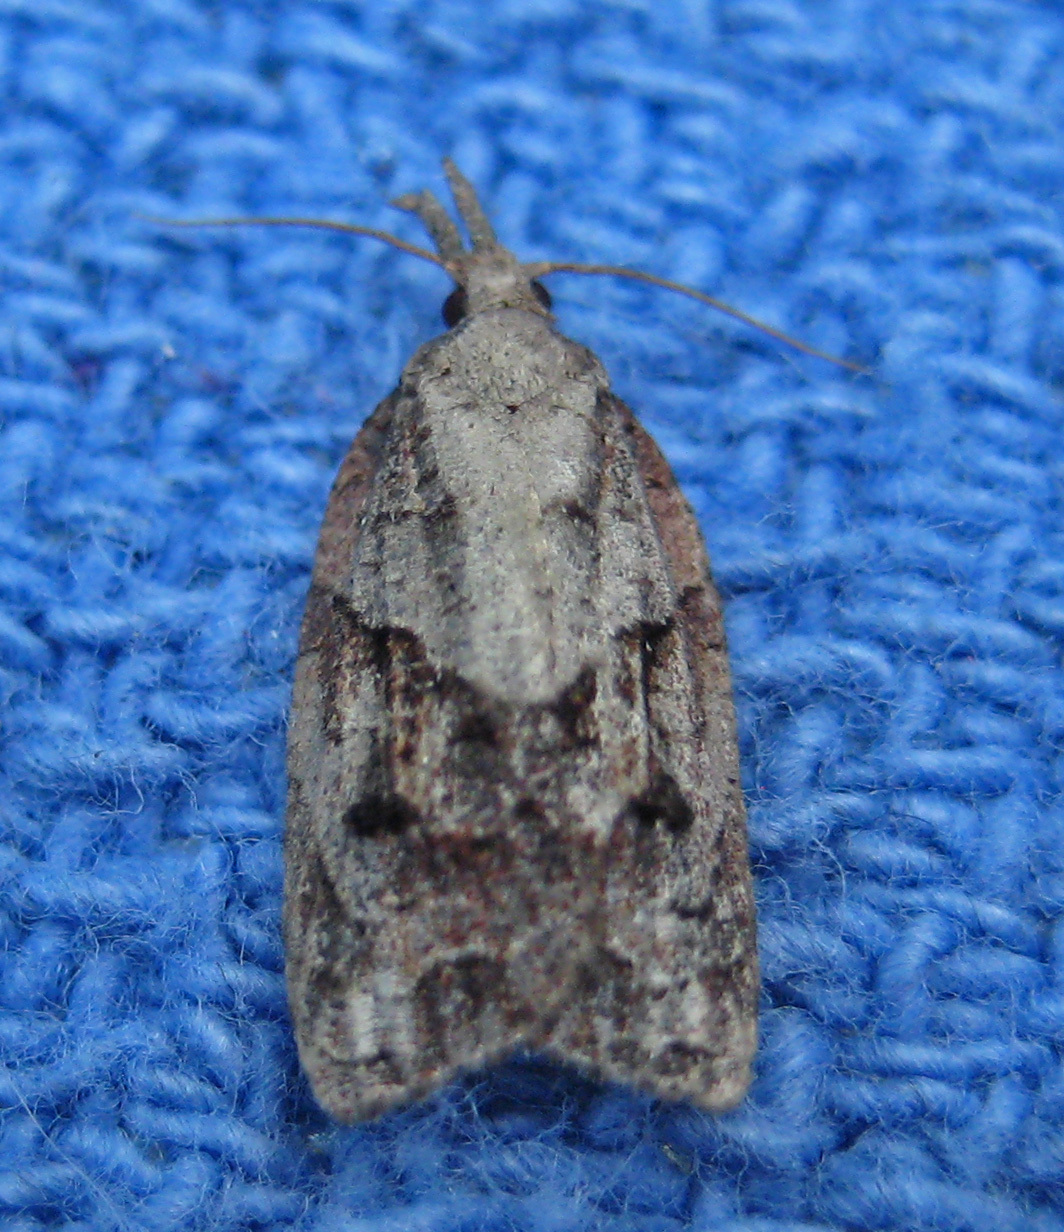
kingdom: Animalia
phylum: Arthropoda
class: Insecta
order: Lepidoptera
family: Tortricidae
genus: Platynota
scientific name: Platynota idaeusalis
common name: Tufted apple bud moth
